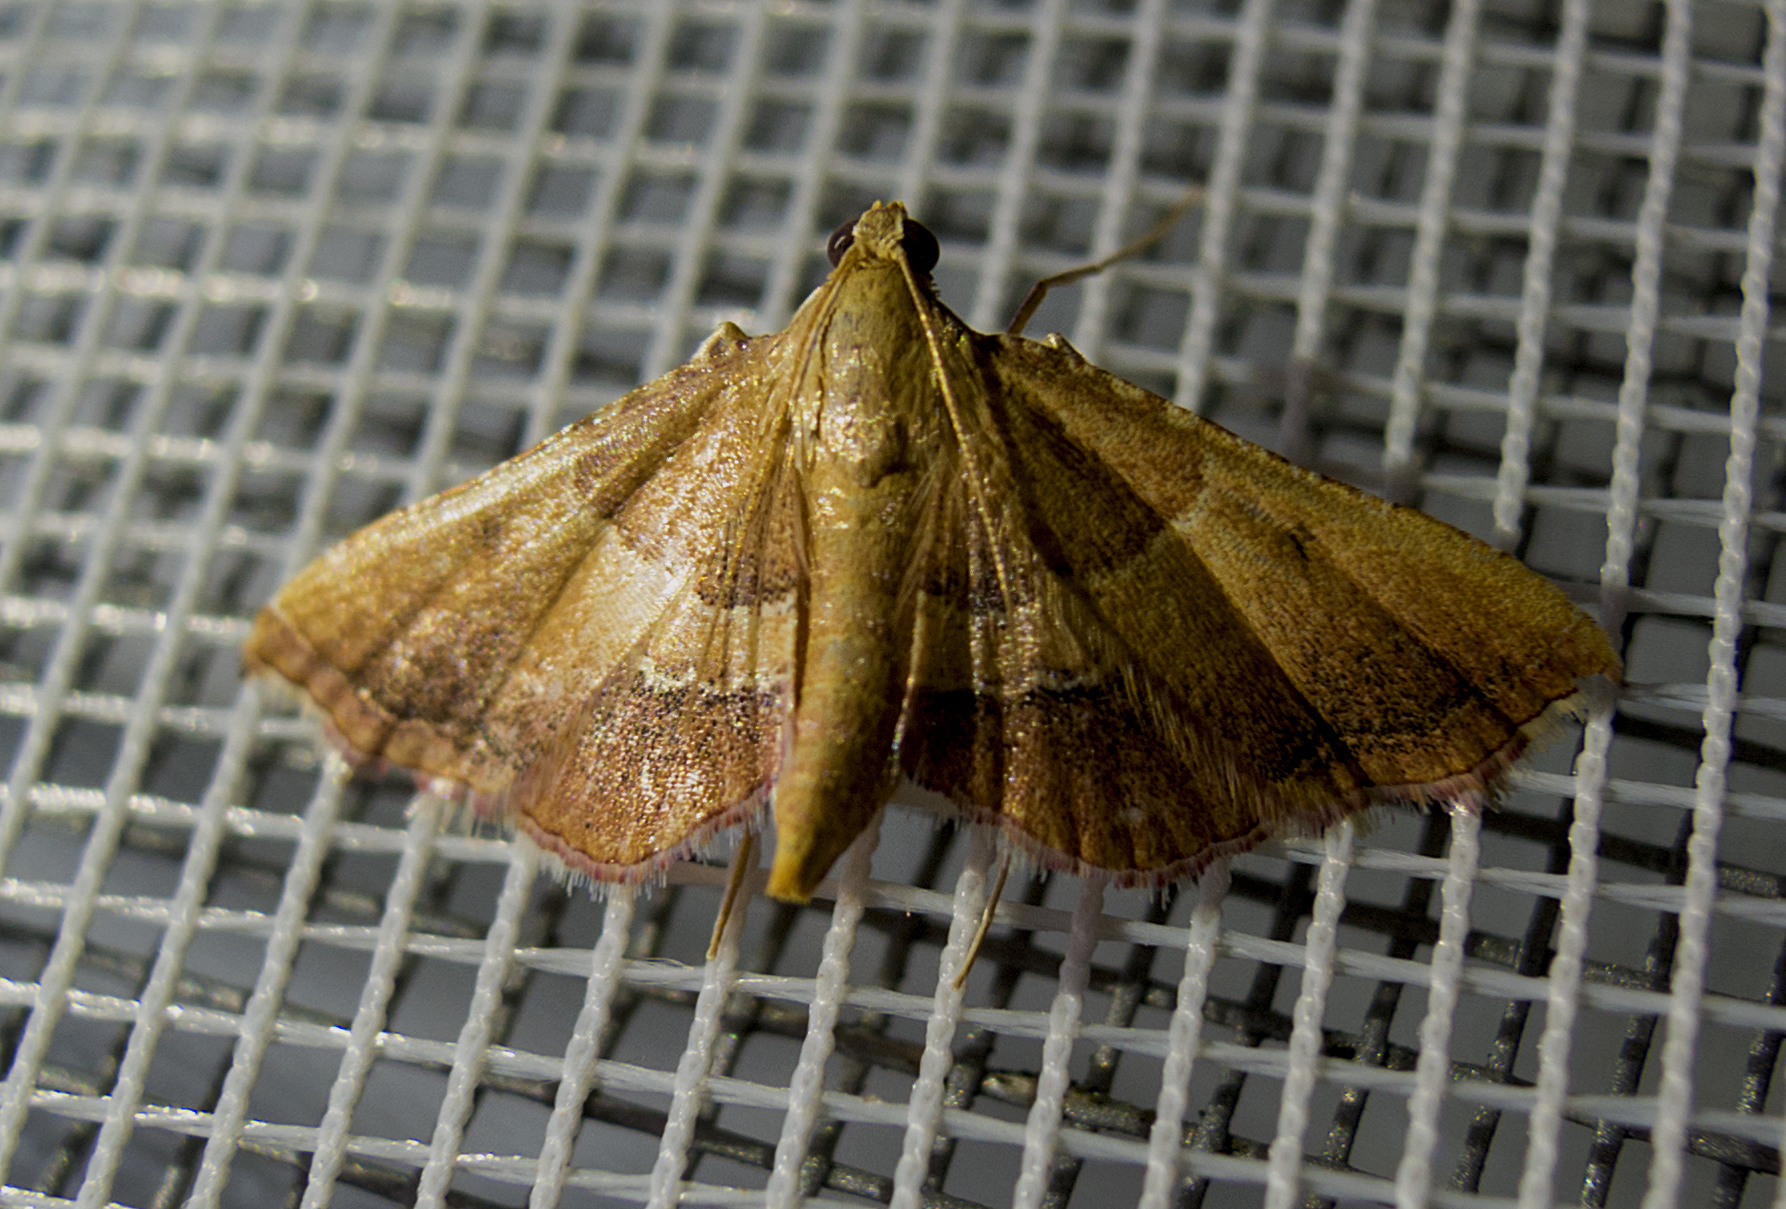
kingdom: Animalia
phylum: Arthropoda
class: Insecta
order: Lepidoptera
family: Pyralidae
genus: Endotricha
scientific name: Endotricha flammealis
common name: Rosy tabby
